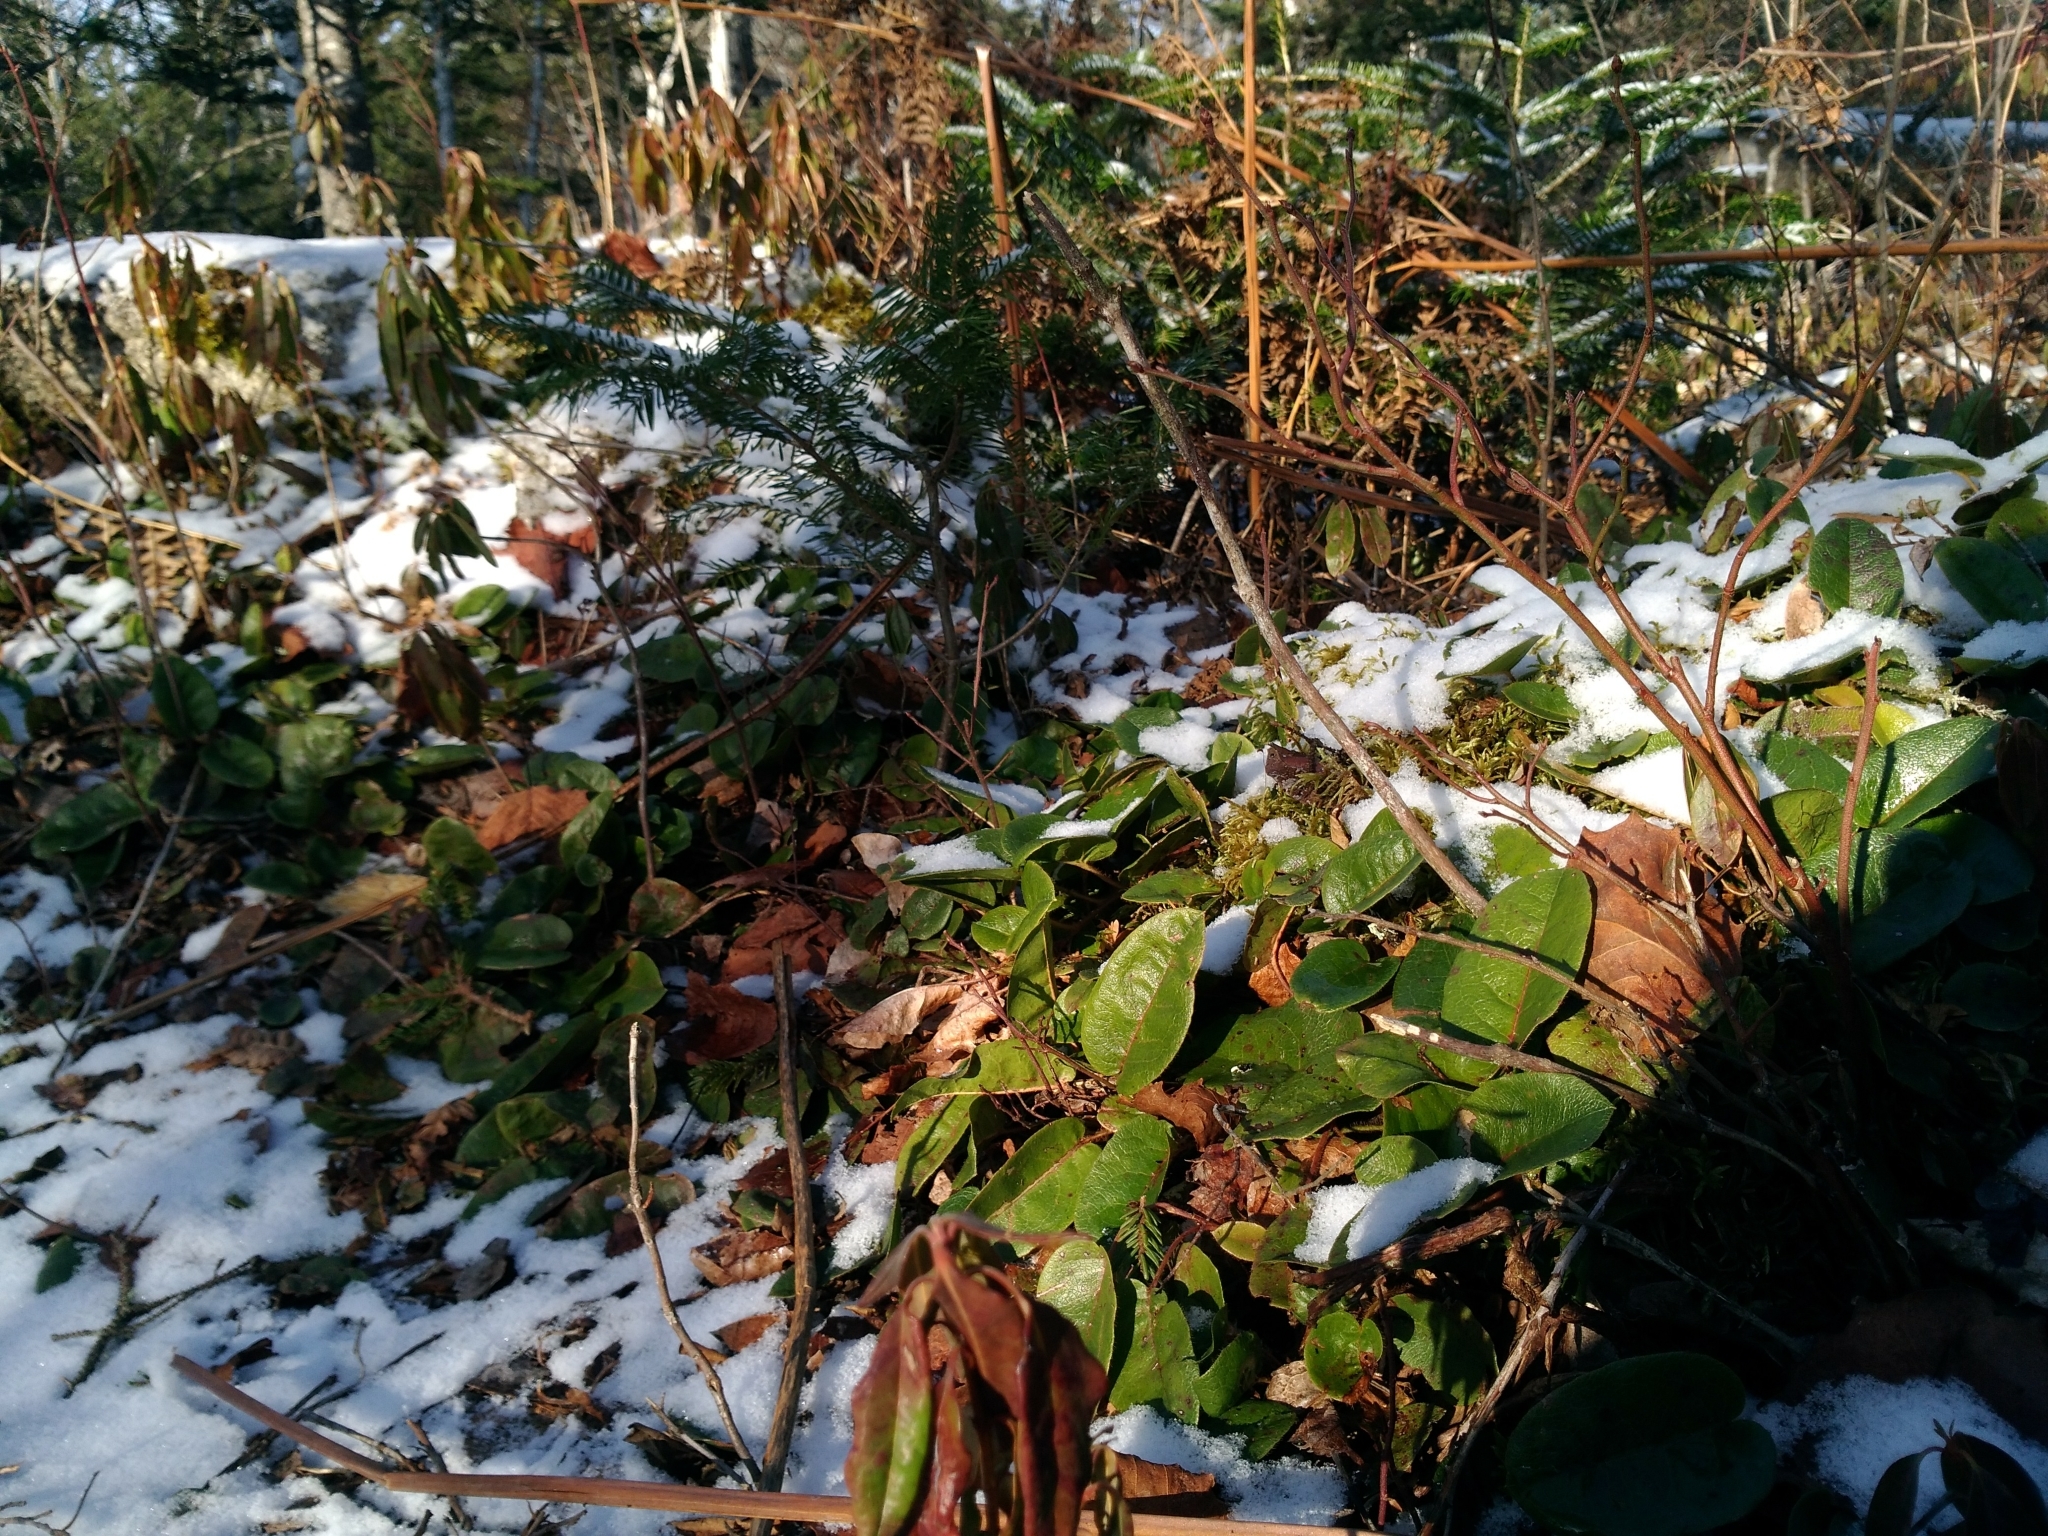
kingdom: Plantae
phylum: Tracheophyta
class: Magnoliopsida
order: Ericales
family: Ericaceae
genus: Epigaea
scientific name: Epigaea repens
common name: Gravelroot
